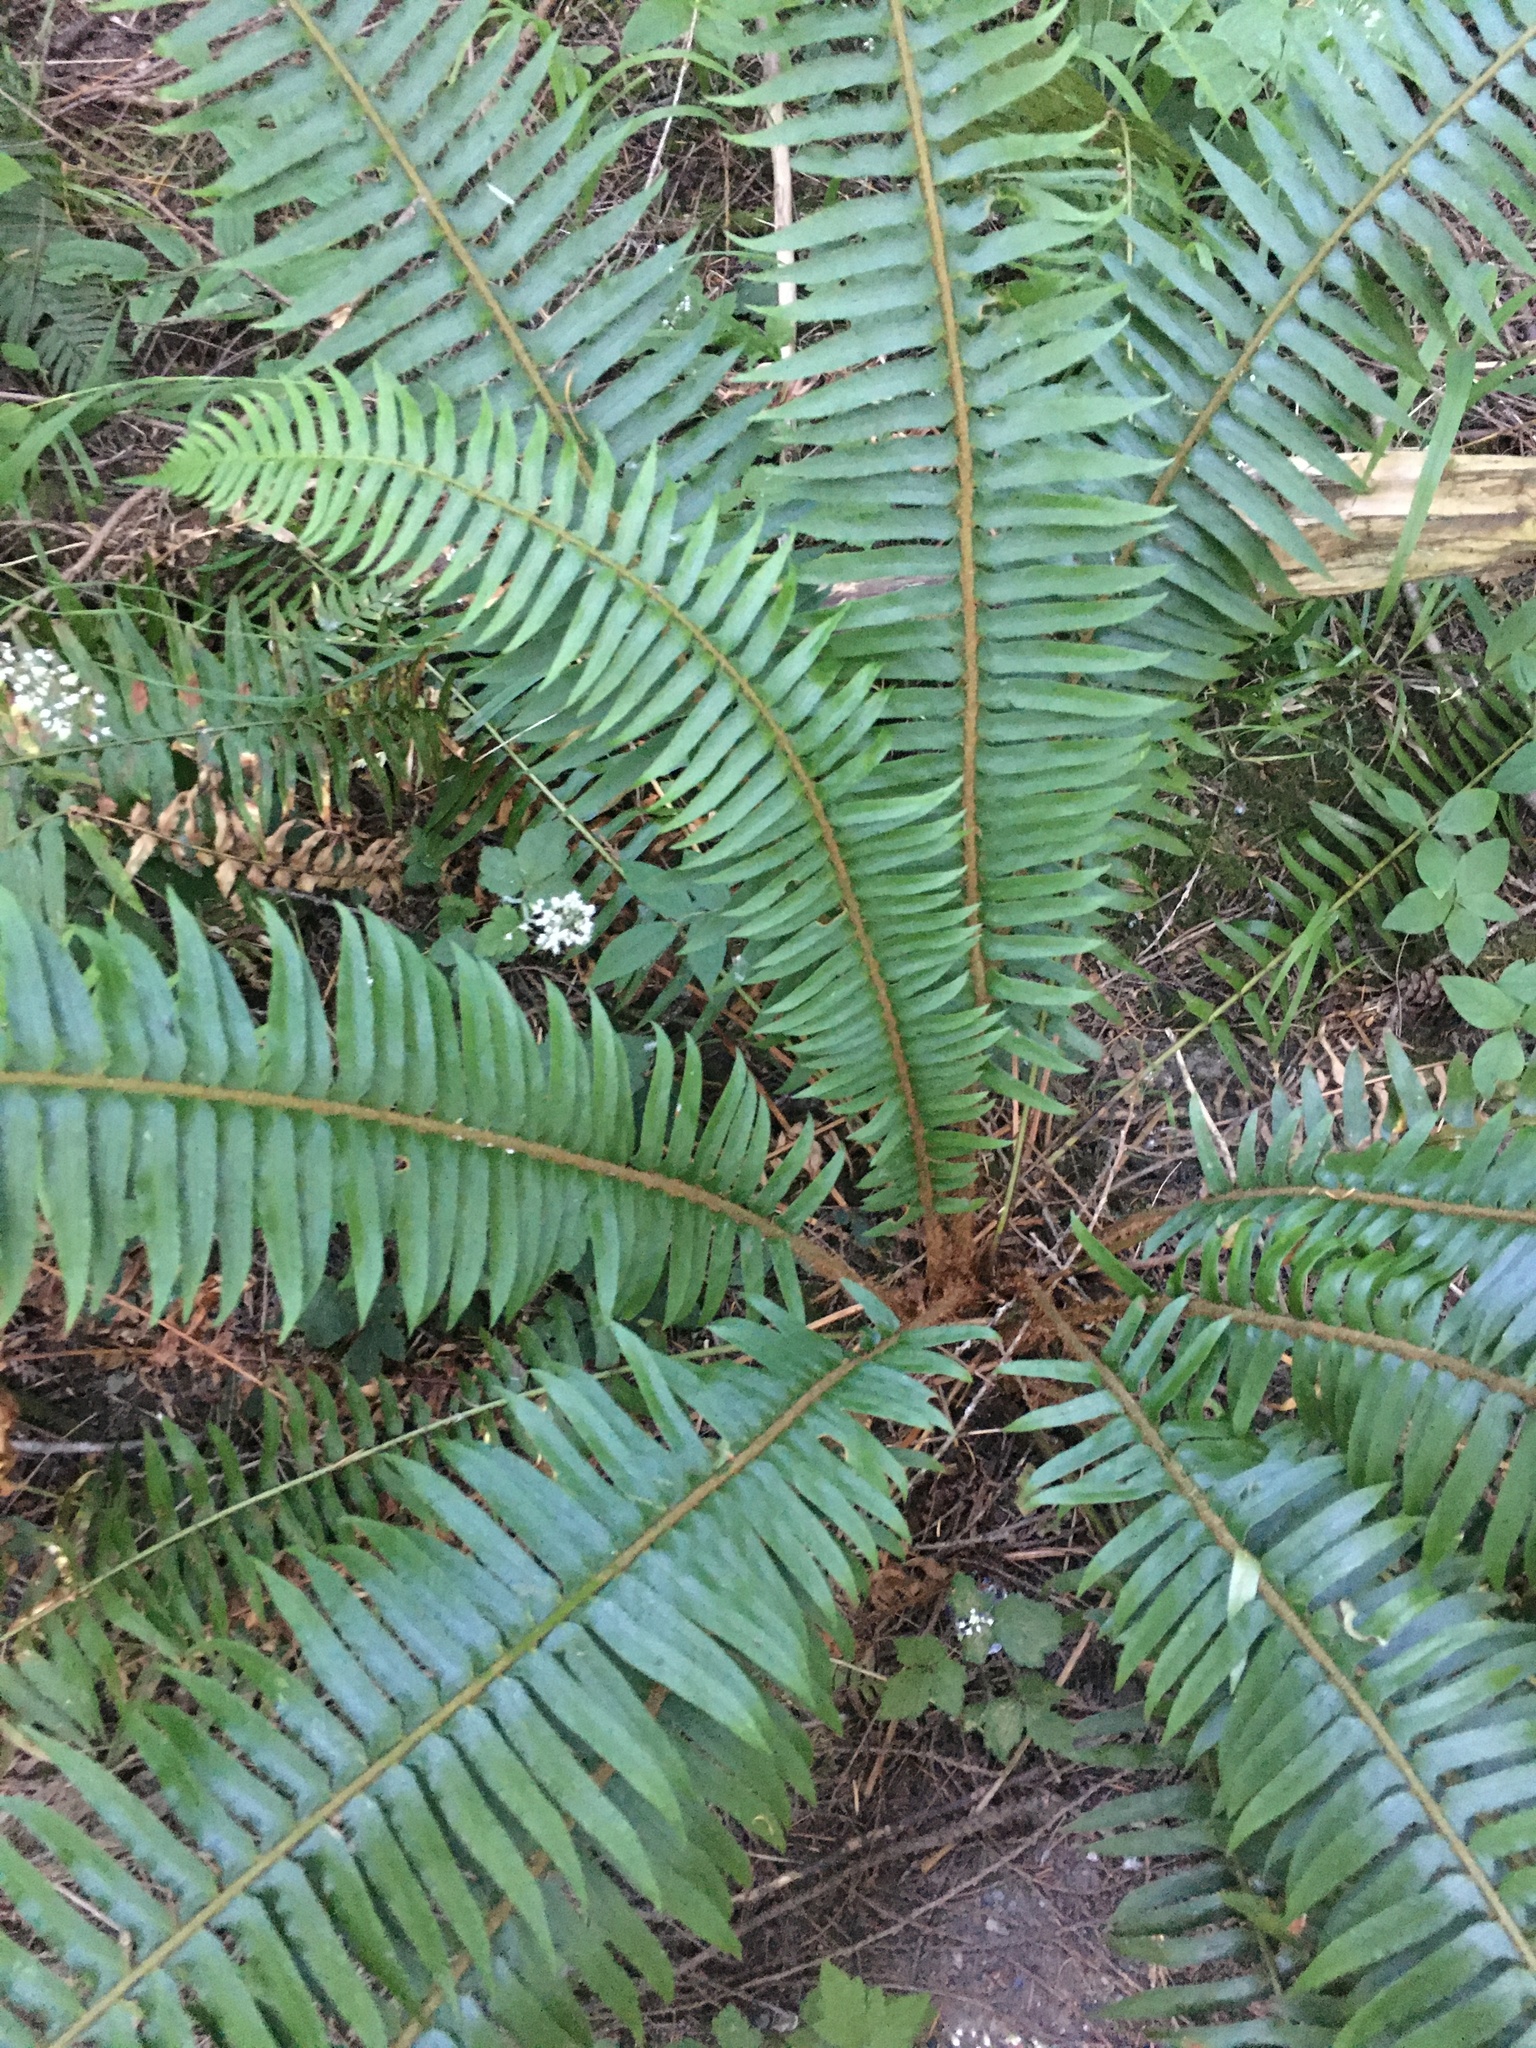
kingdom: Plantae
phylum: Tracheophyta
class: Polypodiopsida
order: Polypodiales
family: Dryopteridaceae
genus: Polystichum
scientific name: Polystichum munitum
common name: Western sword-fern
